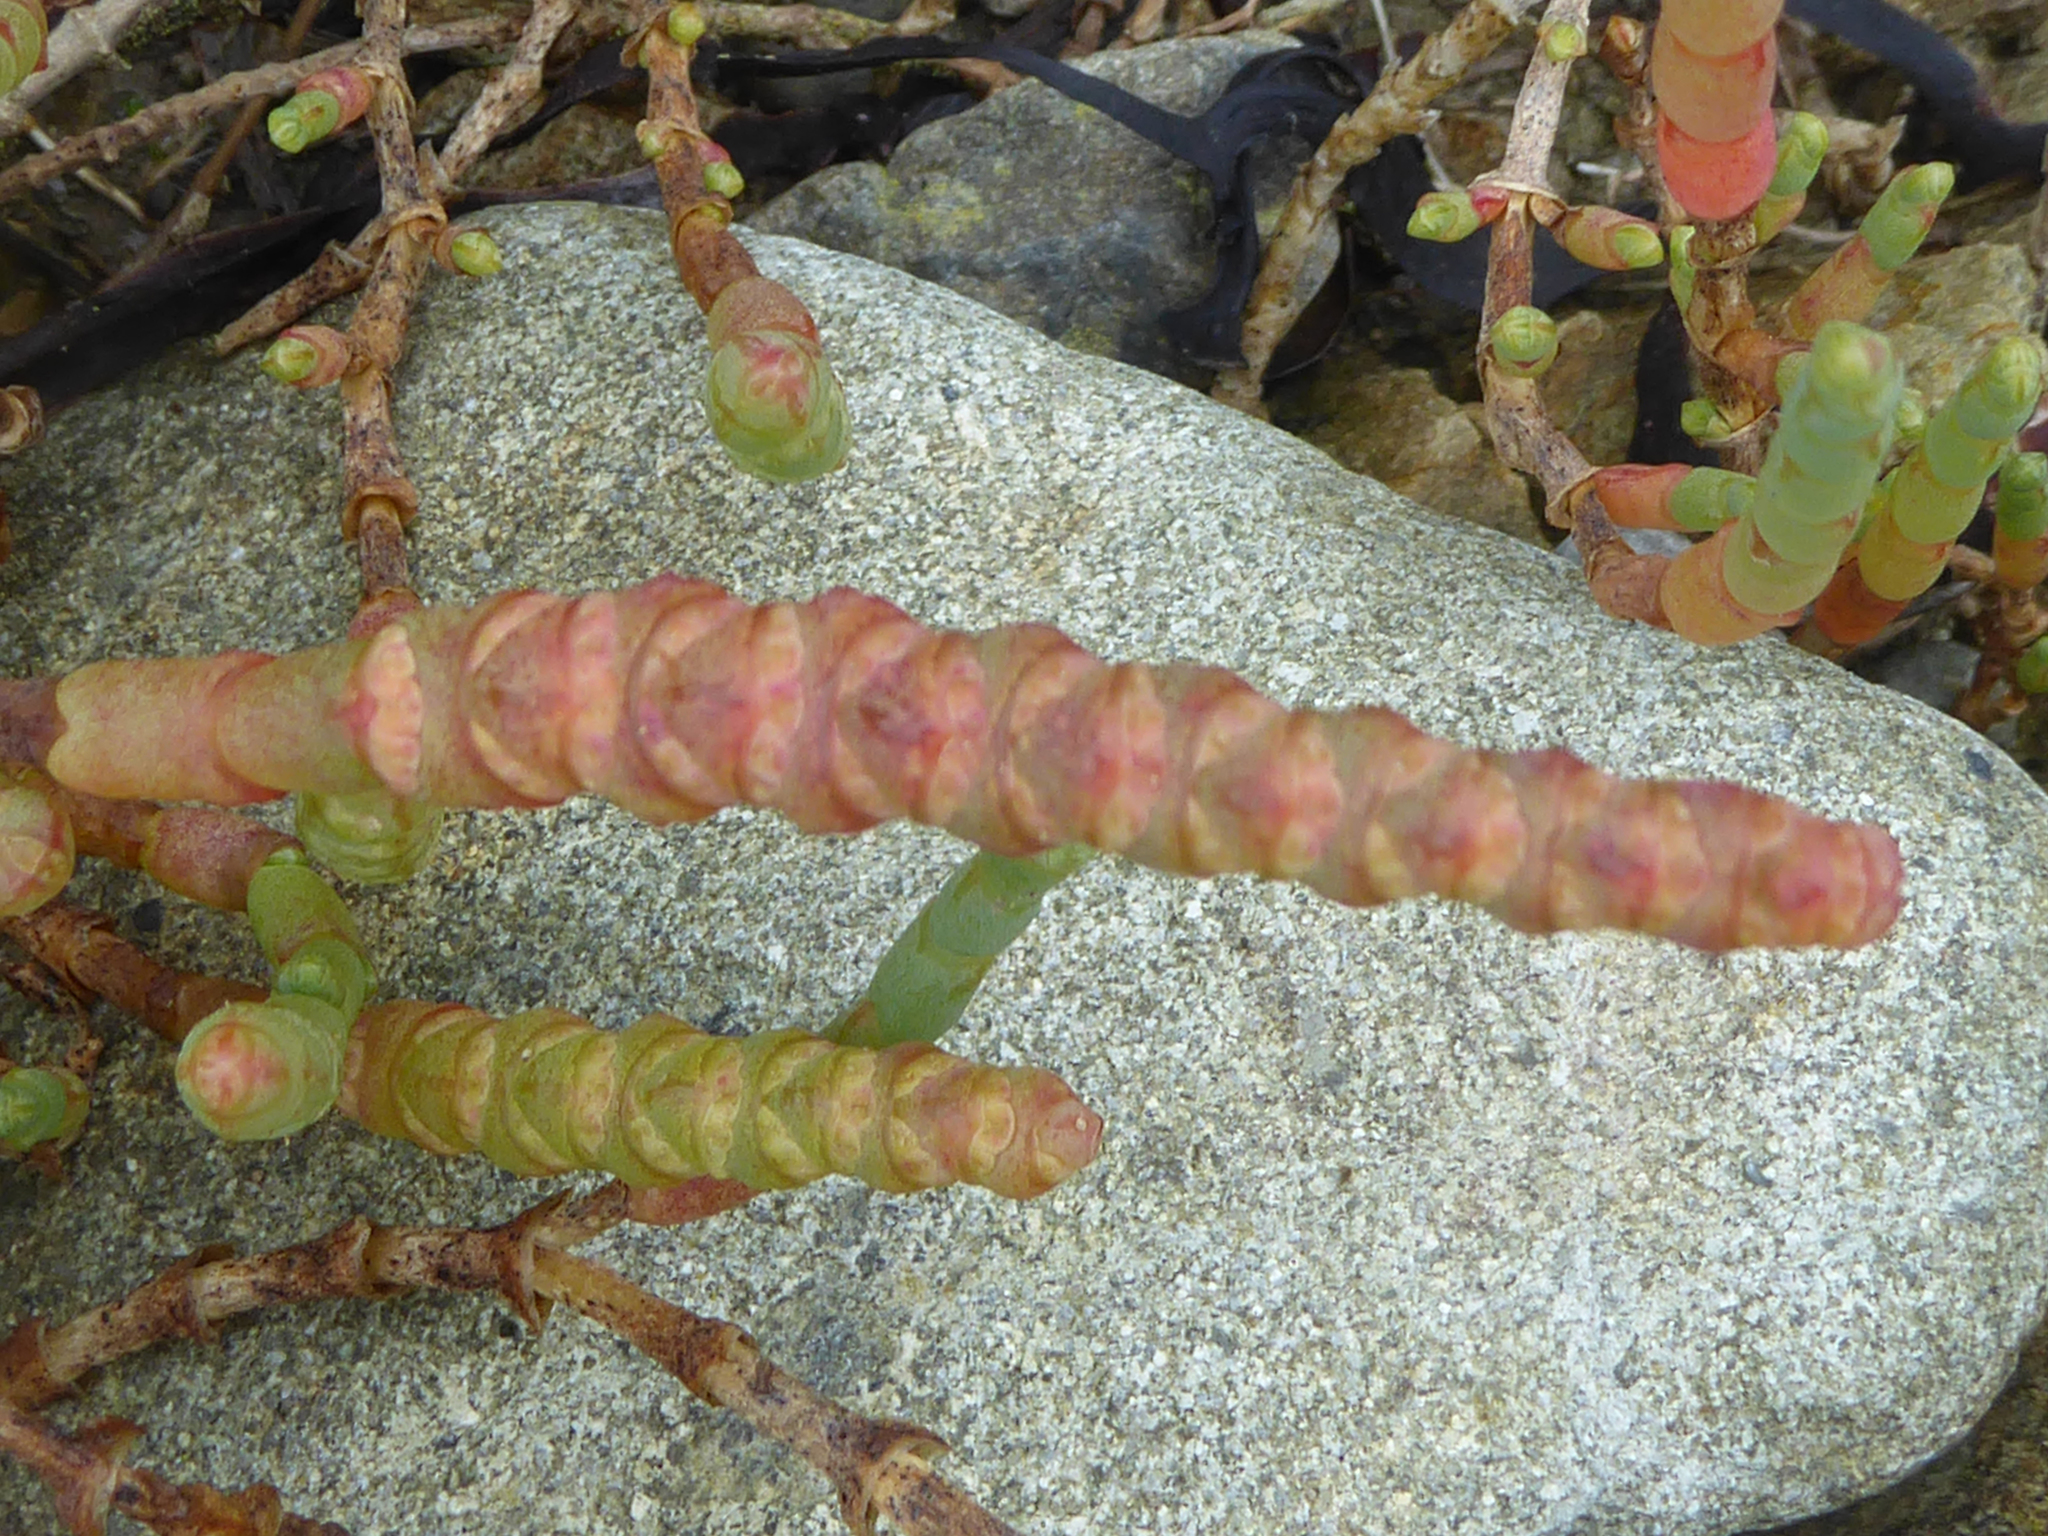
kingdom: Plantae
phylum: Tracheophyta
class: Magnoliopsida
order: Caryophyllales
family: Amaranthaceae
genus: Salicornia
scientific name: Salicornia quinqueflora
